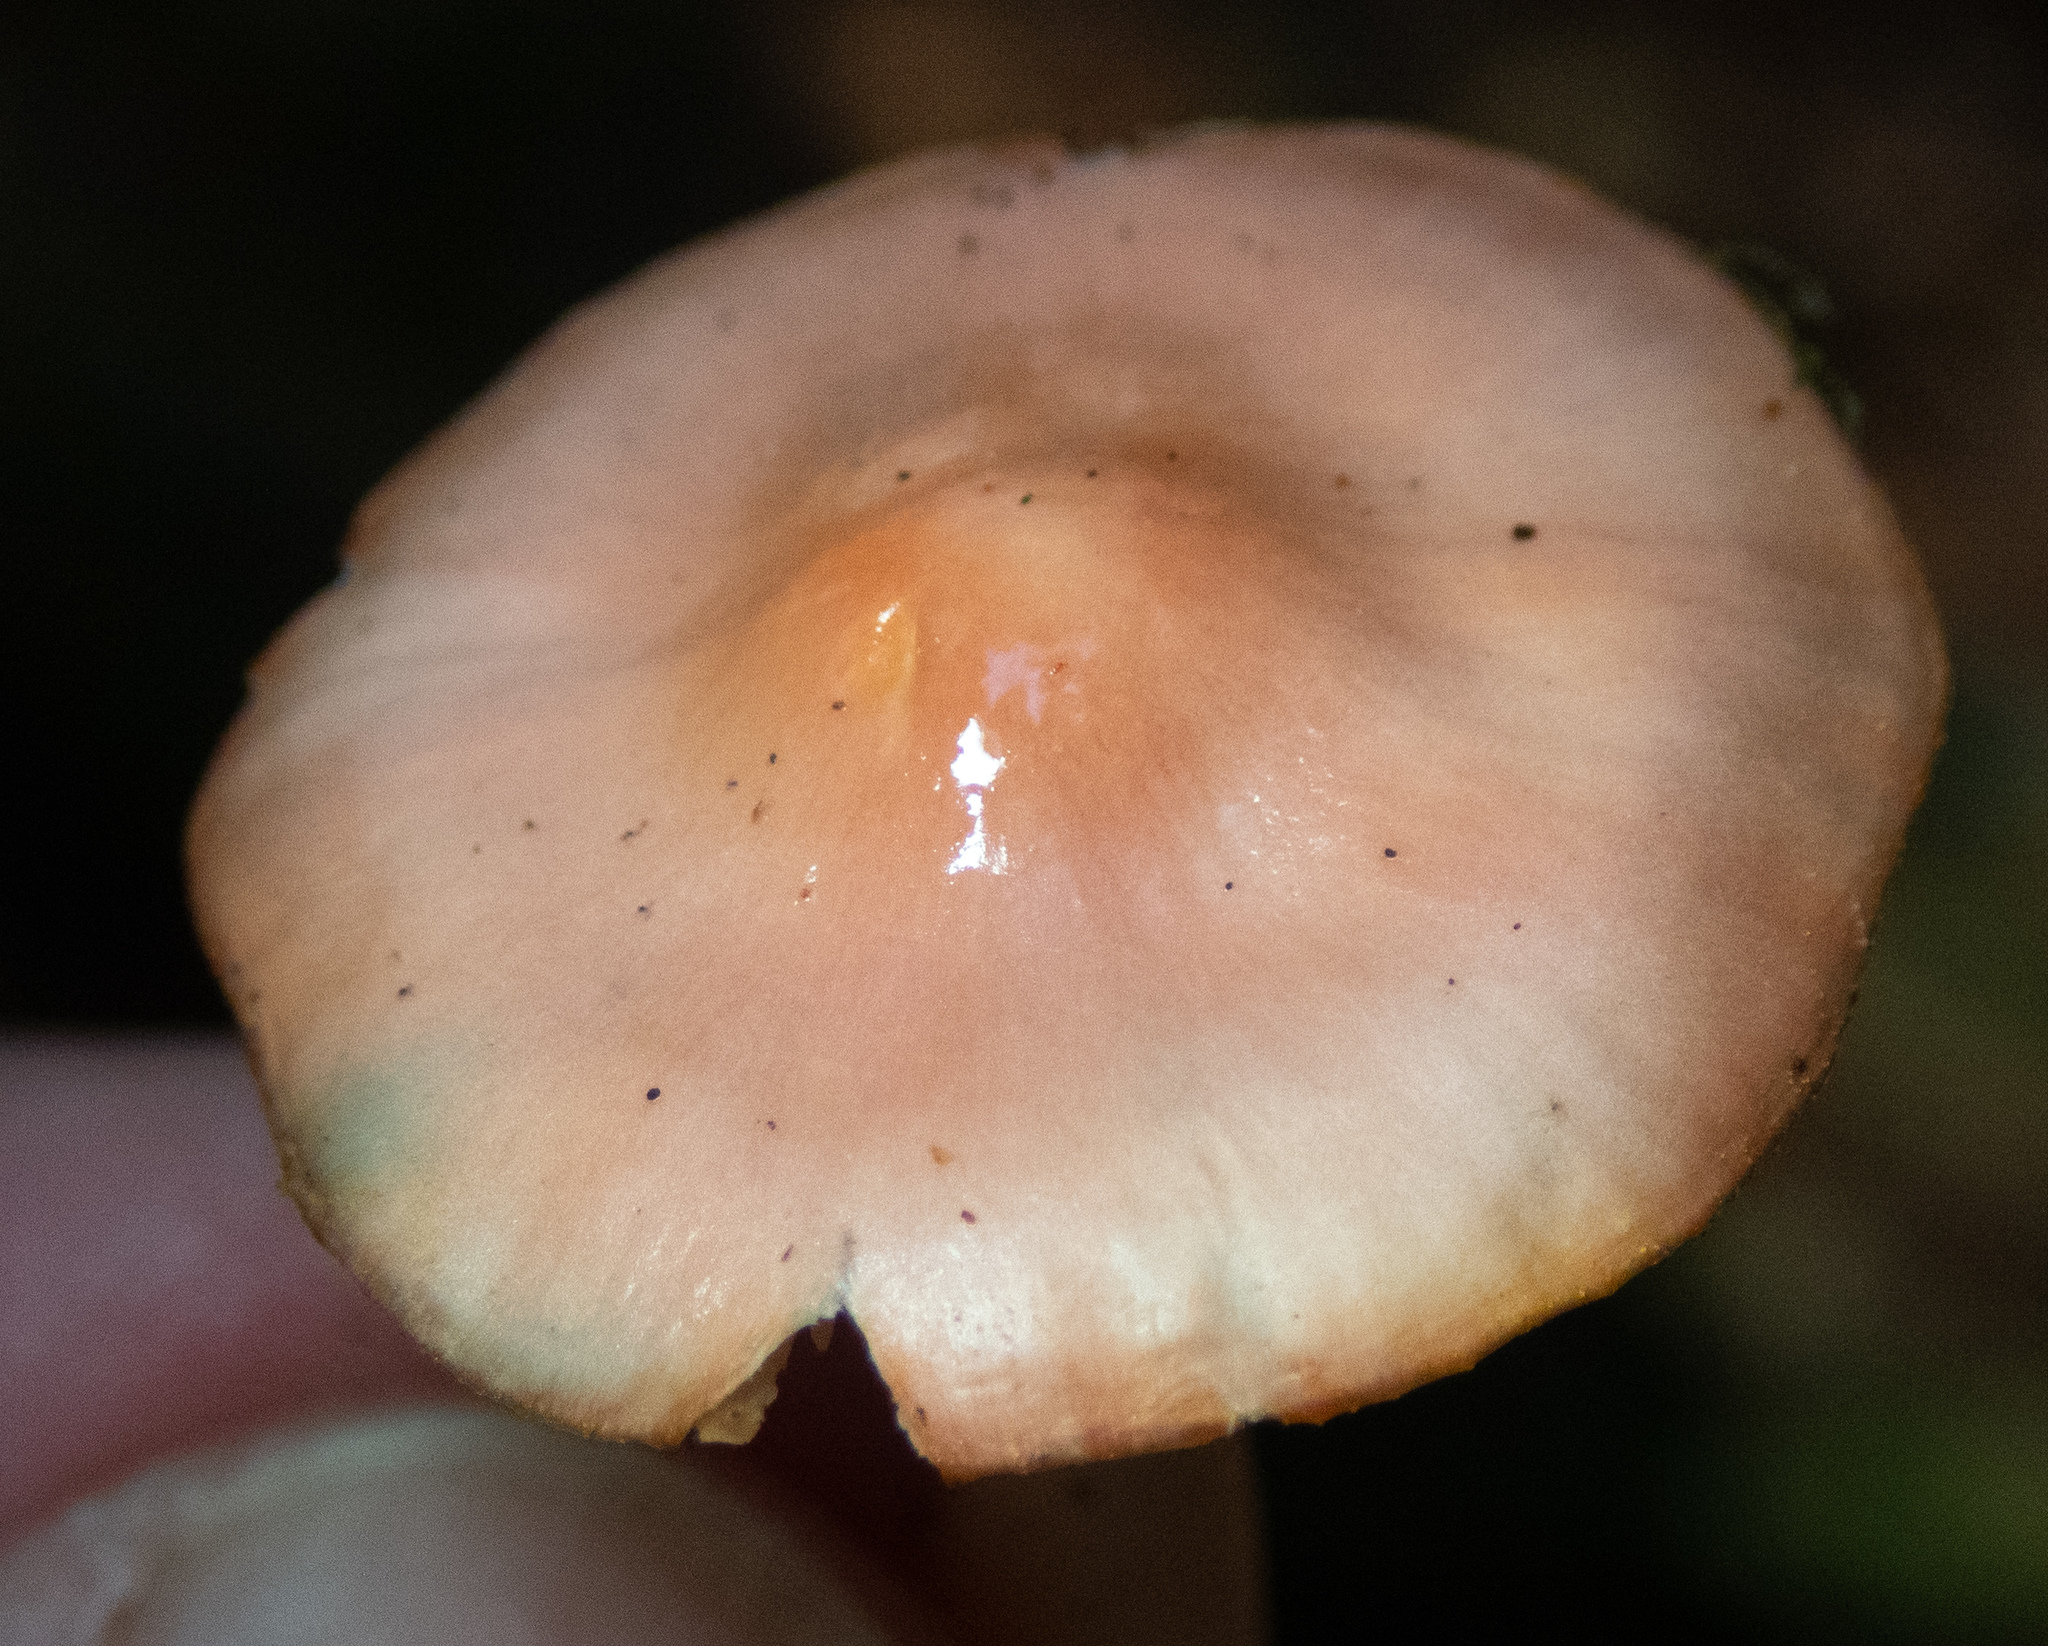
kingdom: Fungi
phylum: Basidiomycota
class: Agaricomycetes
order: Agaricales
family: Hygrophoraceae
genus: Gliophorus
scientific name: Gliophorus psittacinus
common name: Parrot wax-cap
